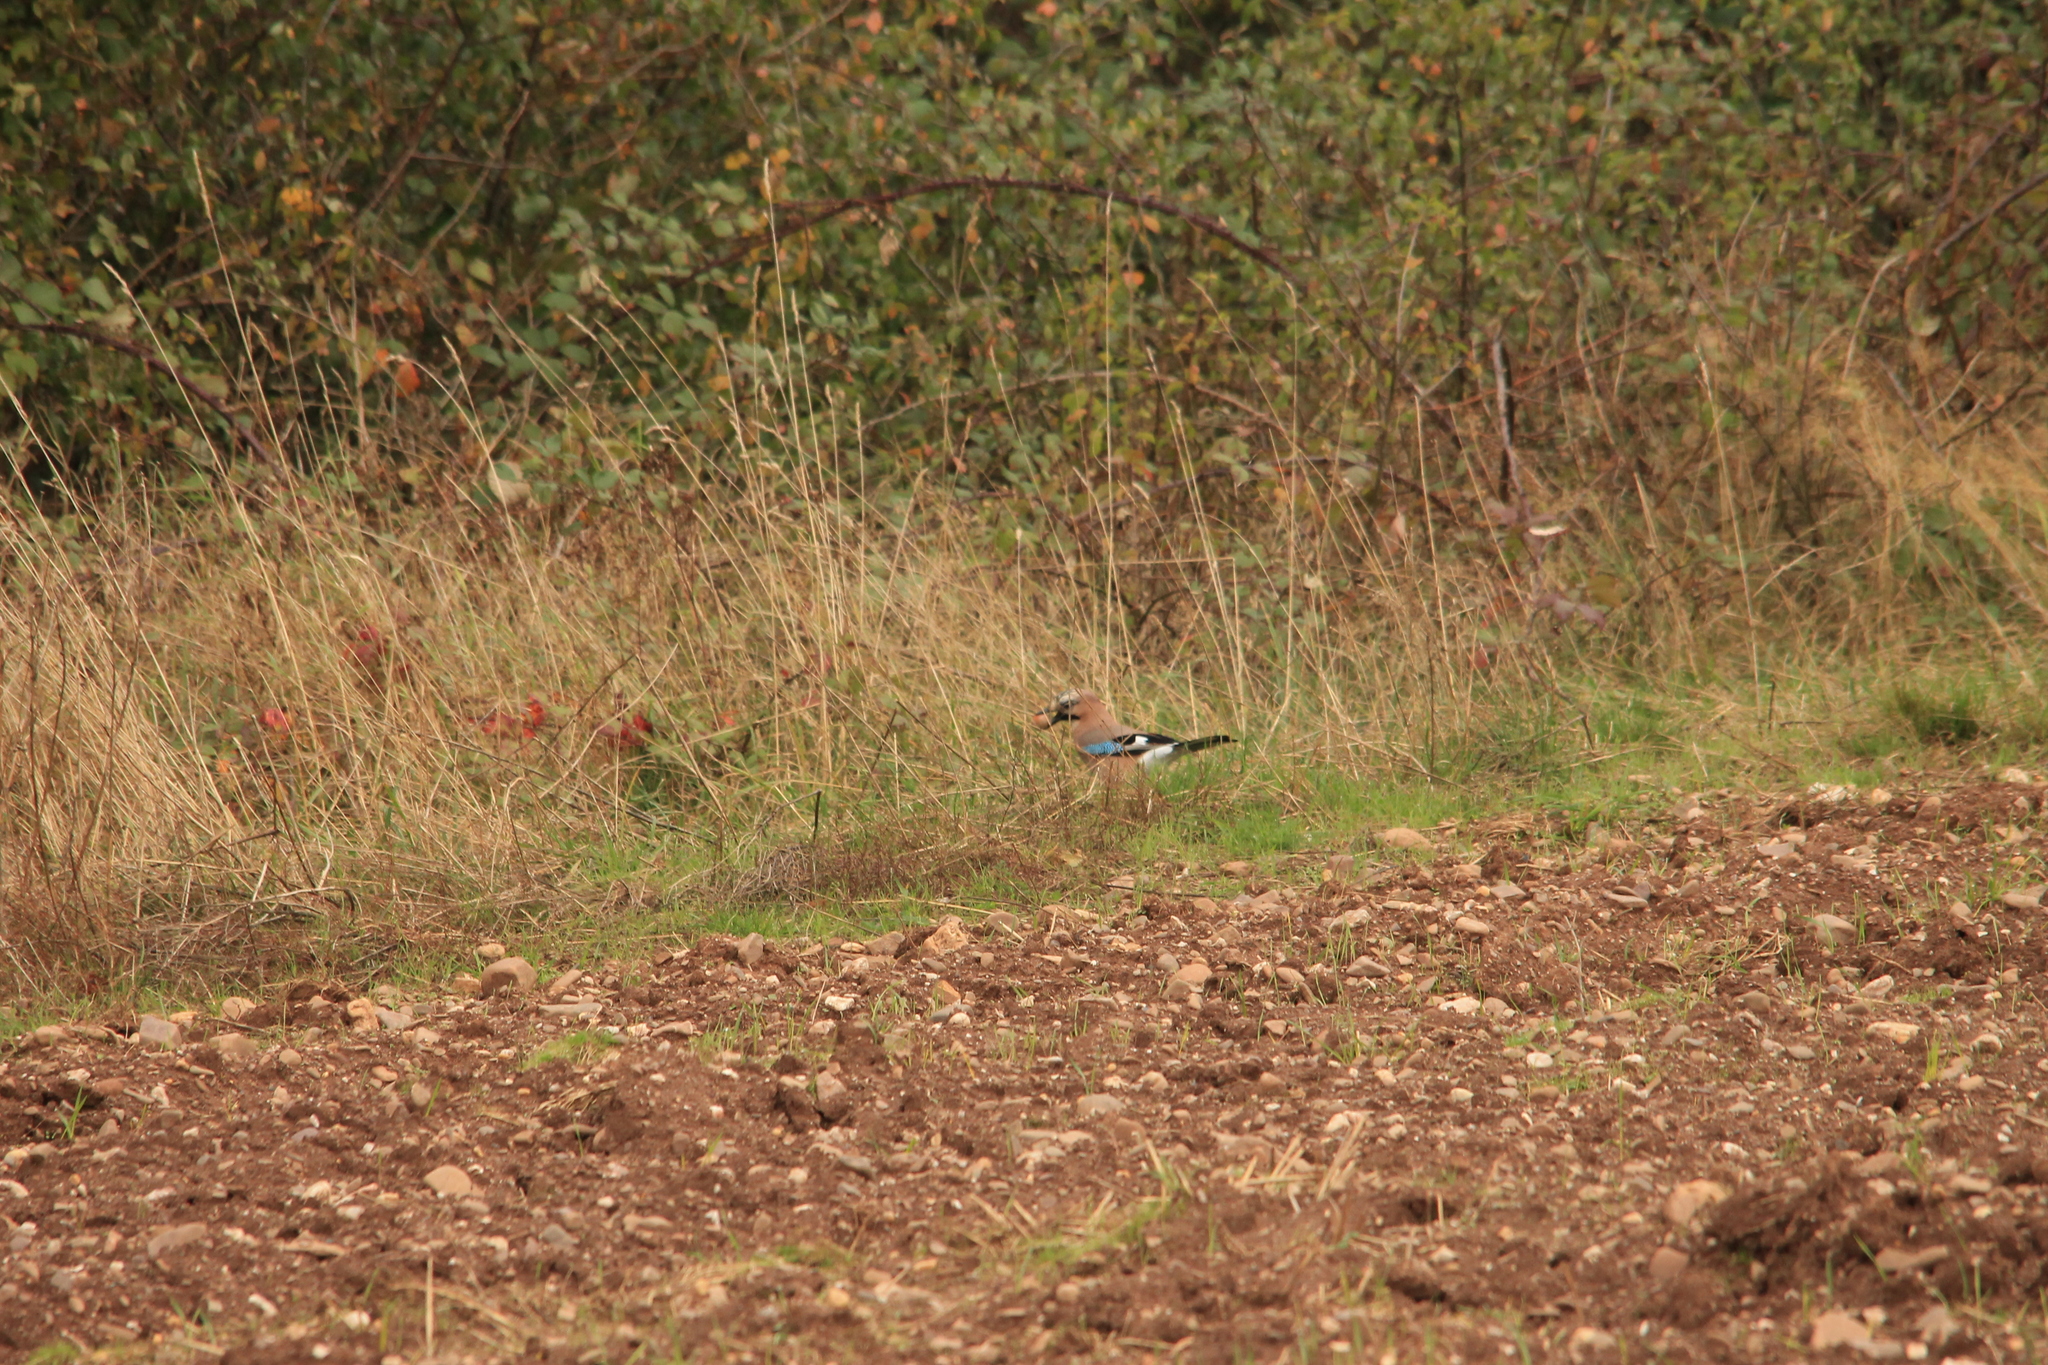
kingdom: Animalia
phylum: Chordata
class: Aves
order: Passeriformes
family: Corvidae
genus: Garrulus
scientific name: Garrulus glandarius
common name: Eurasian jay
